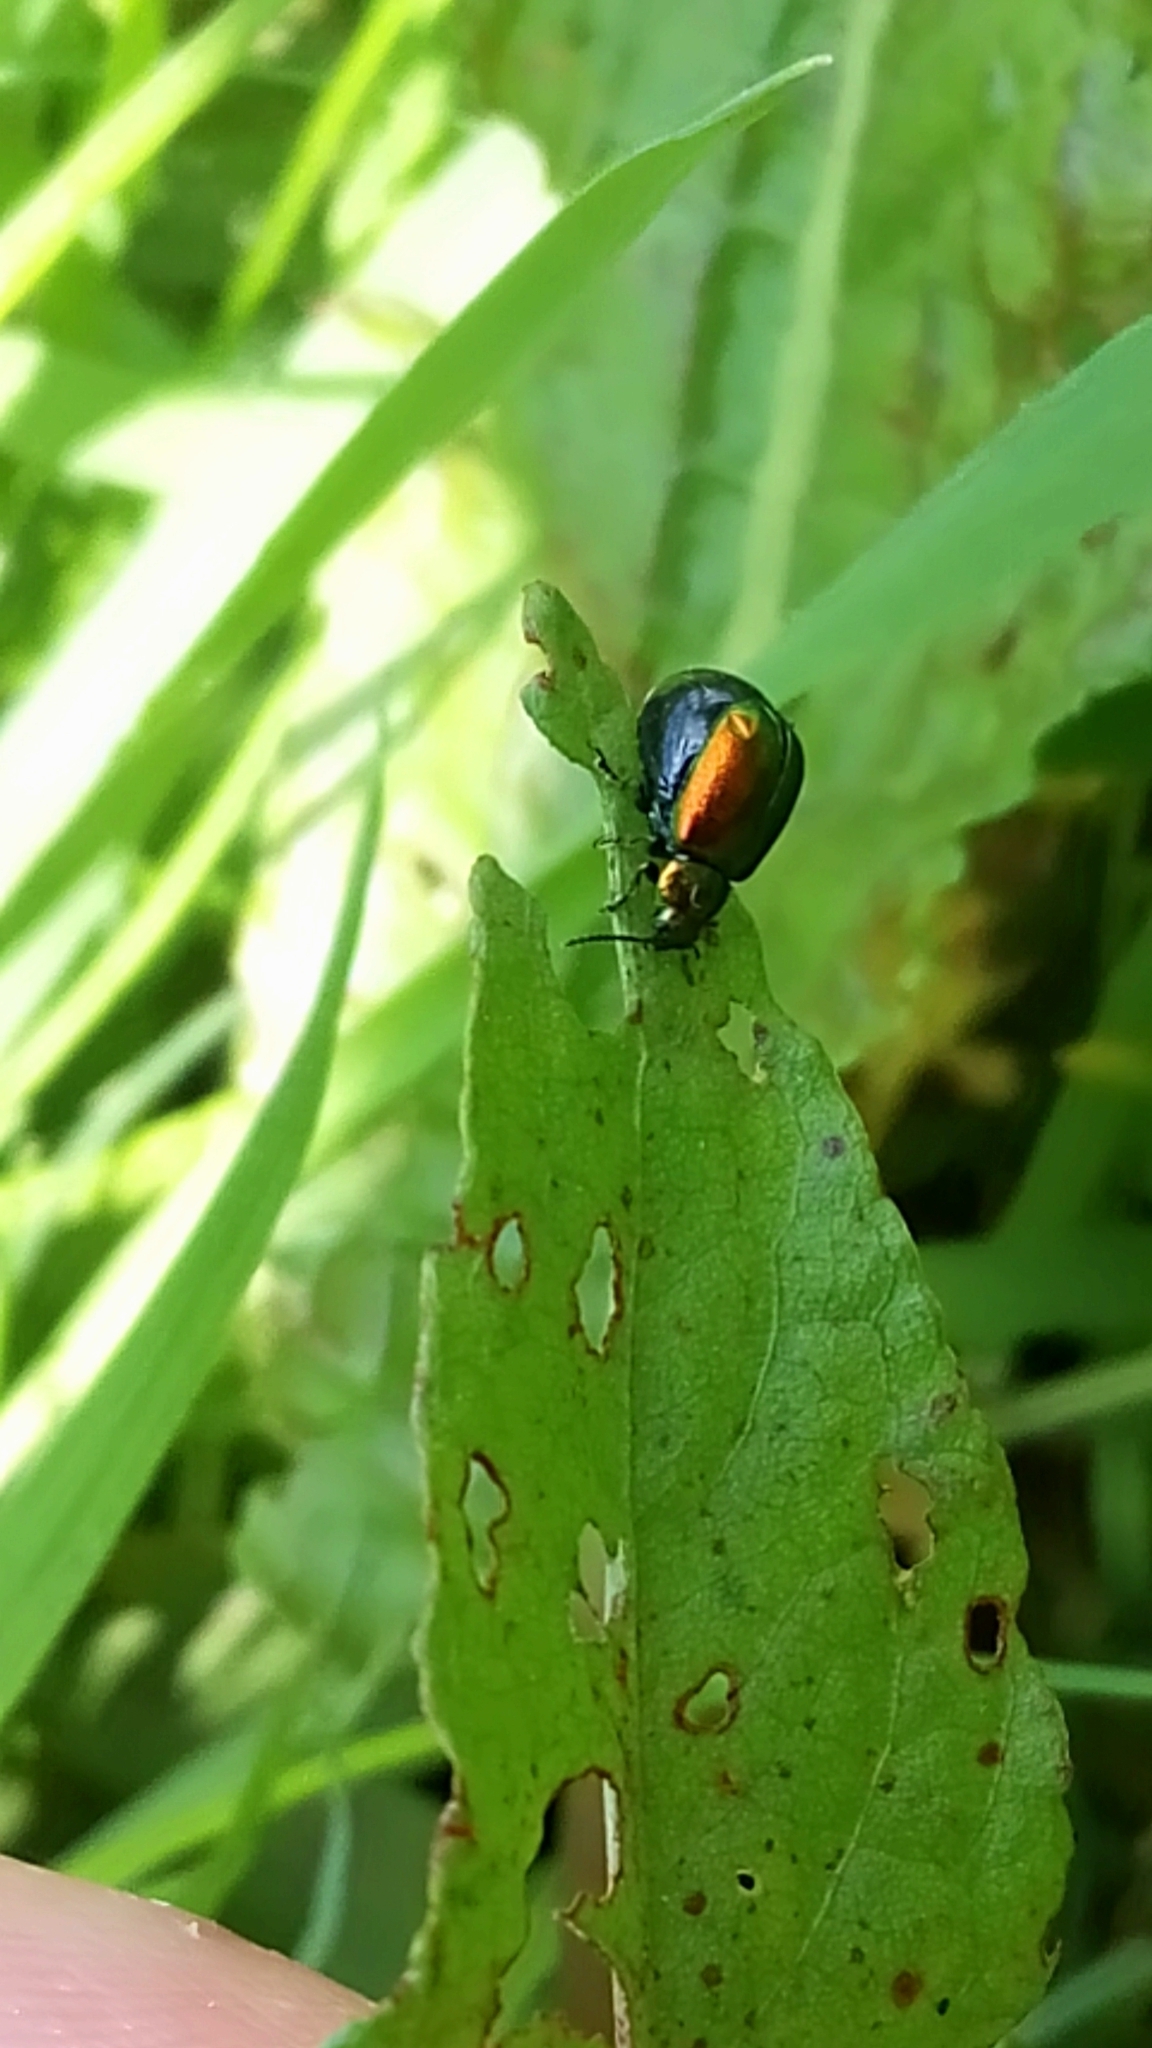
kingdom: Animalia
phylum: Arthropoda
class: Insecta
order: Coleoptera
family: Chrysomelidae
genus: Gastrophysa
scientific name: Gastrophysa viridula
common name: Green dock beetle
